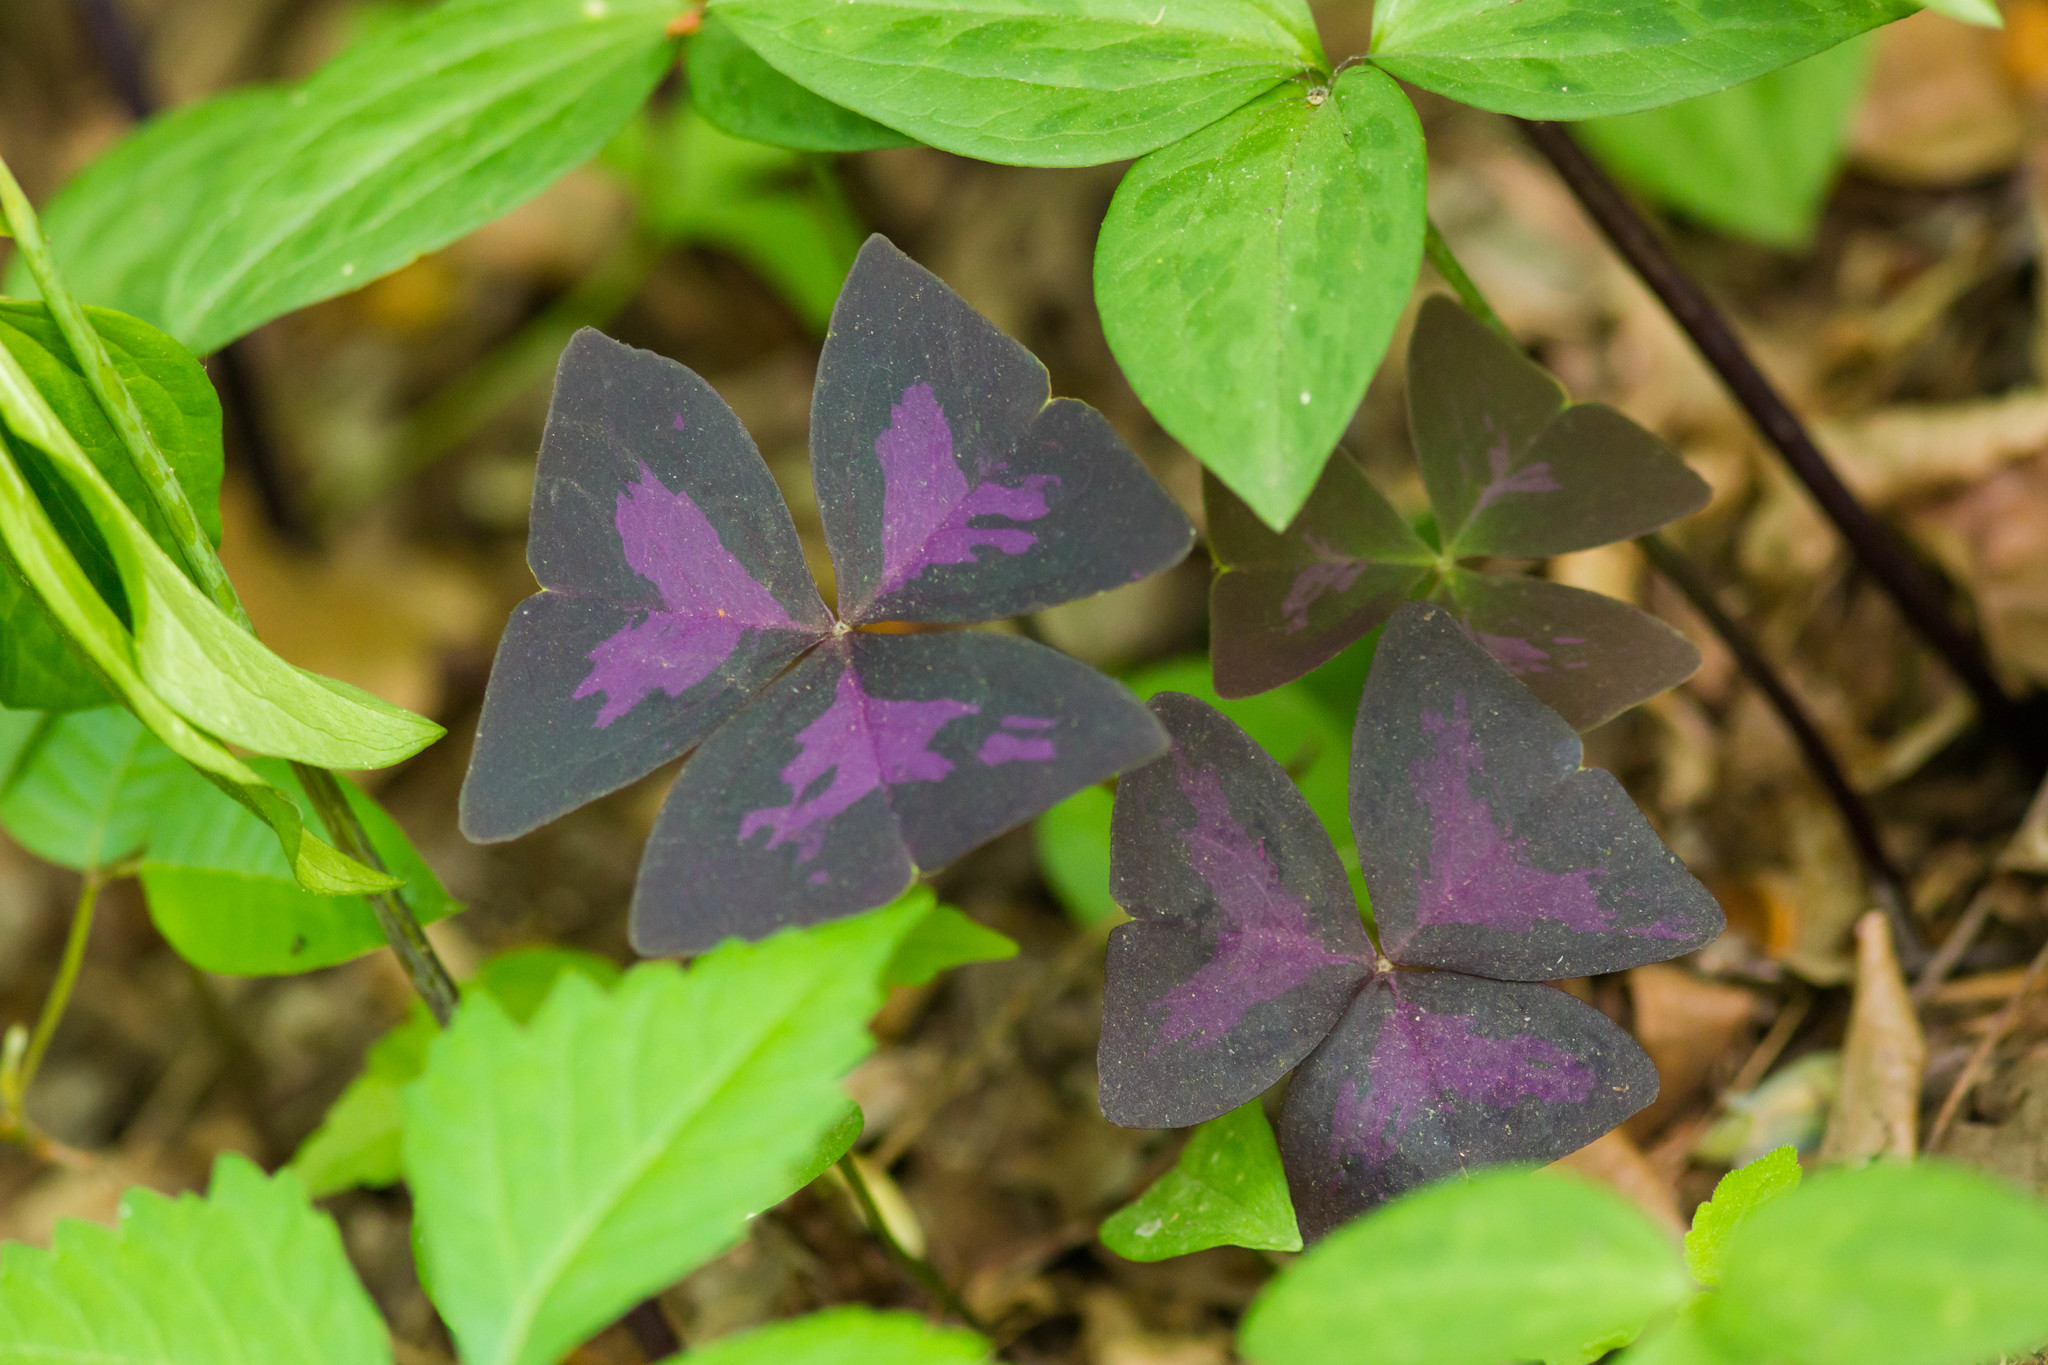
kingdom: Plantae
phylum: Tracheophyta
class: Magnoliopsida
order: Oxalidales
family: Oxalidaceae
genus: Oxalis
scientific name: Oxalis triangularis
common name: Wood sorrel
